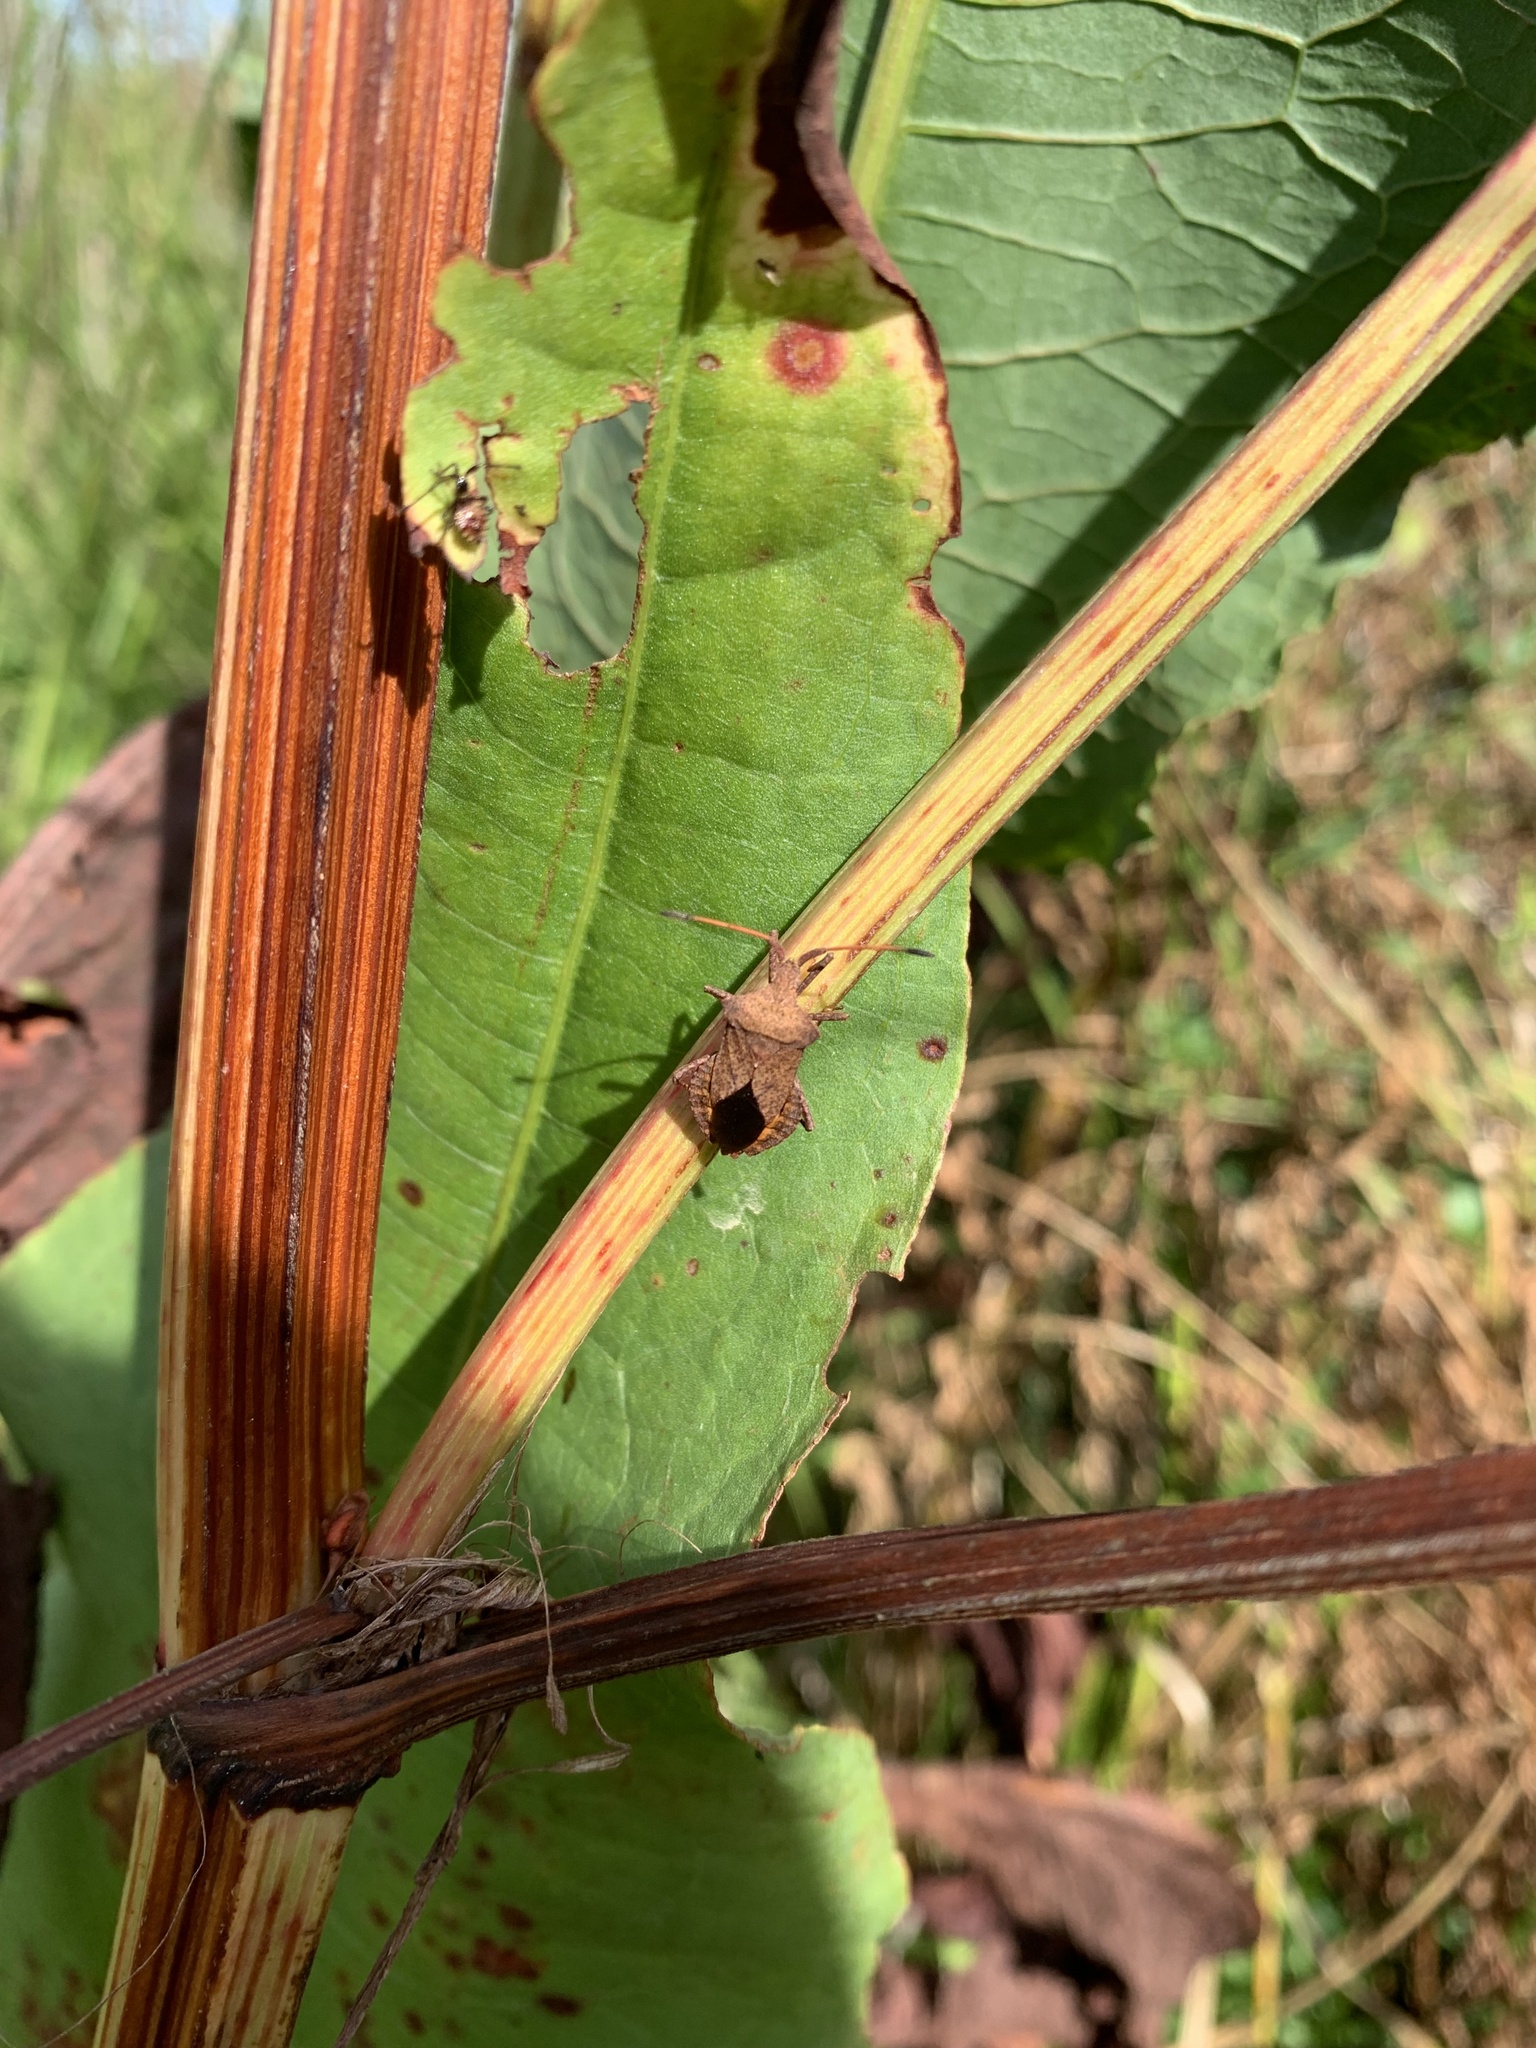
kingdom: Animalia
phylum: Arthropoda
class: Insecta
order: Hemiptera
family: Coreidae
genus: Coreus
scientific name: Coreus marginatus
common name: Dock bug
